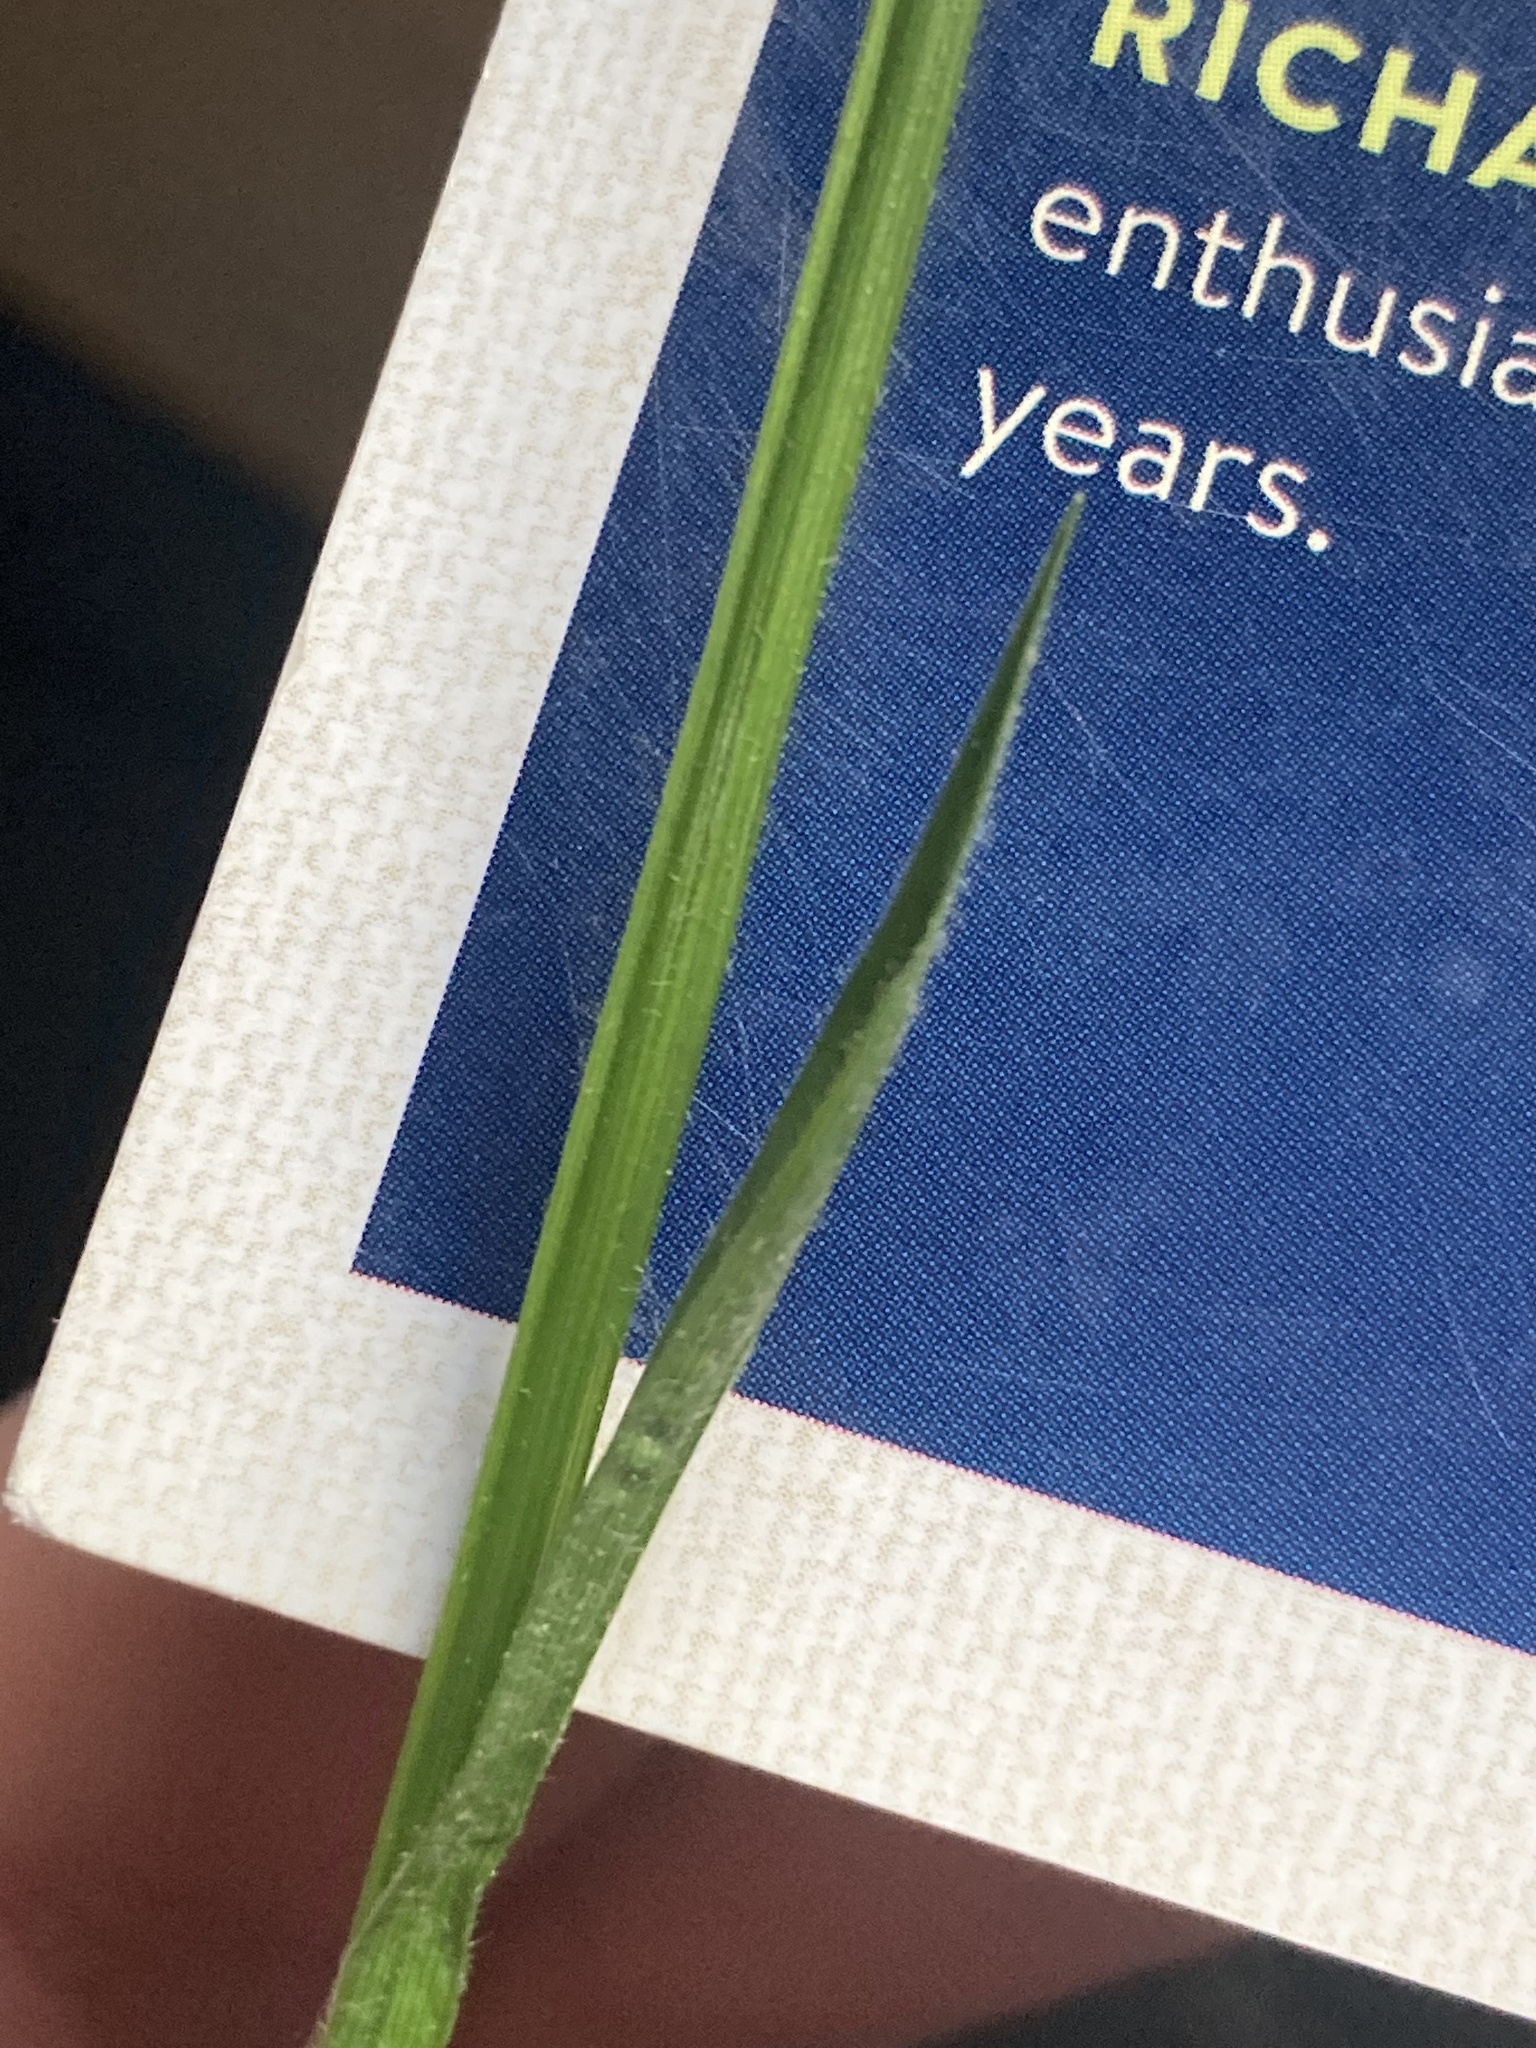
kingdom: Plantae
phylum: Tracheophyta
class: Liliopsida
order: Poales
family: Cyperaceae
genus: Carex
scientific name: Carex castanea
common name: Chestnut sedge
